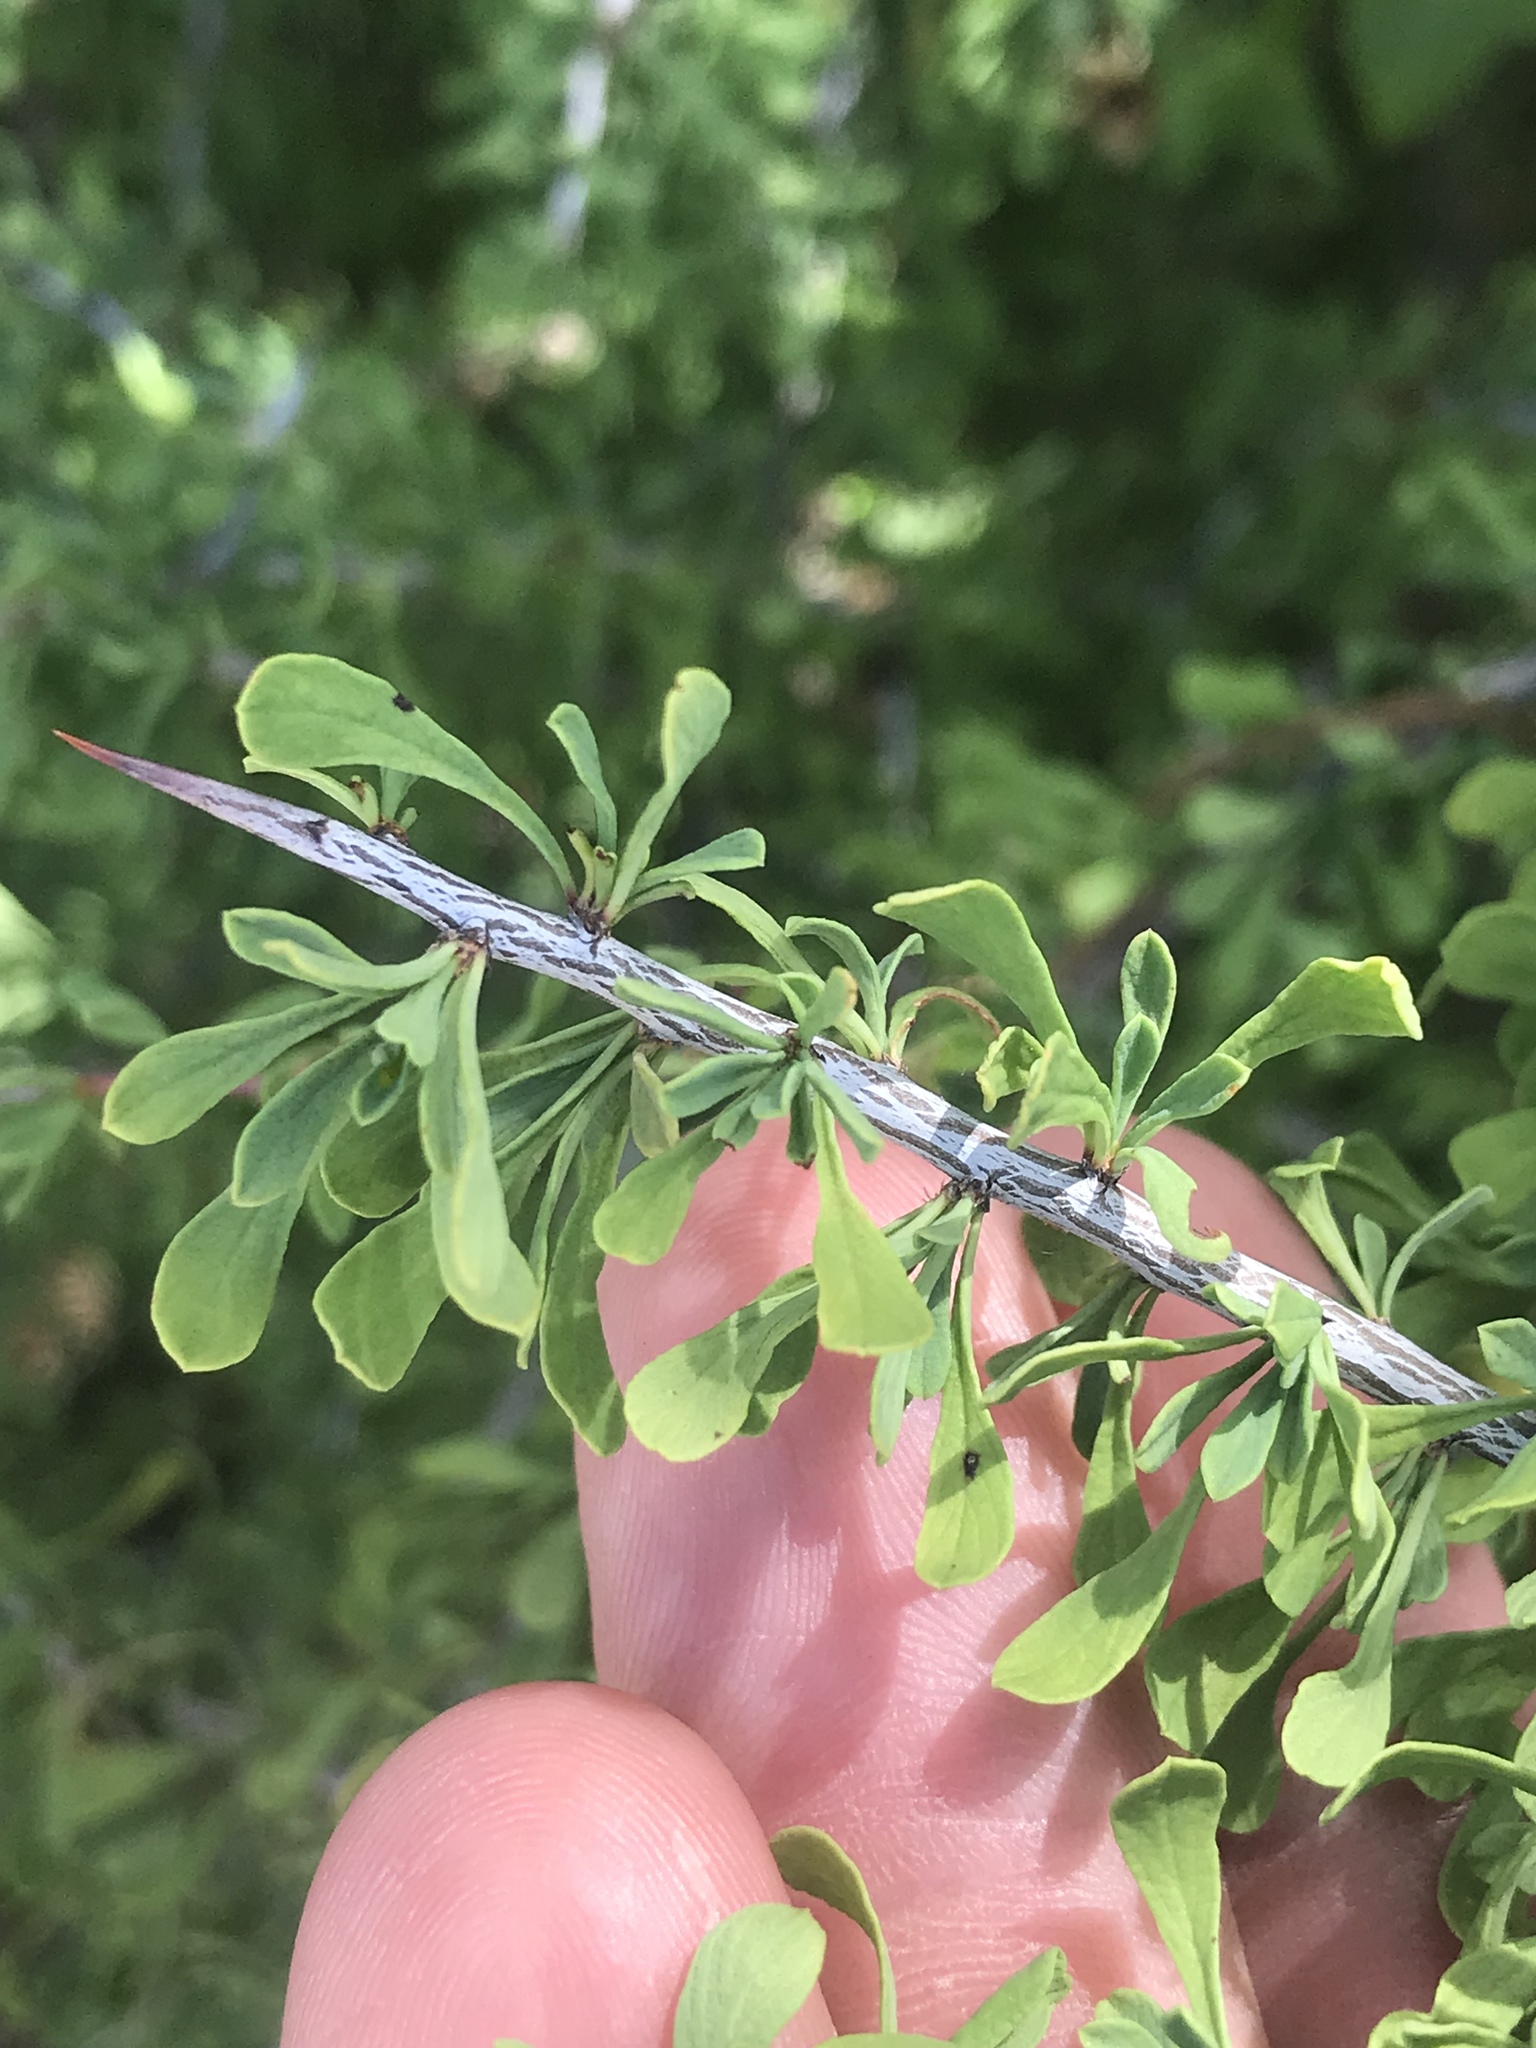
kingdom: Plantae
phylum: Tracheophyta
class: Magnoliopsida
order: Rosales
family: Rhamnaceae
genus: Condalia
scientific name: Condalia spathulata
